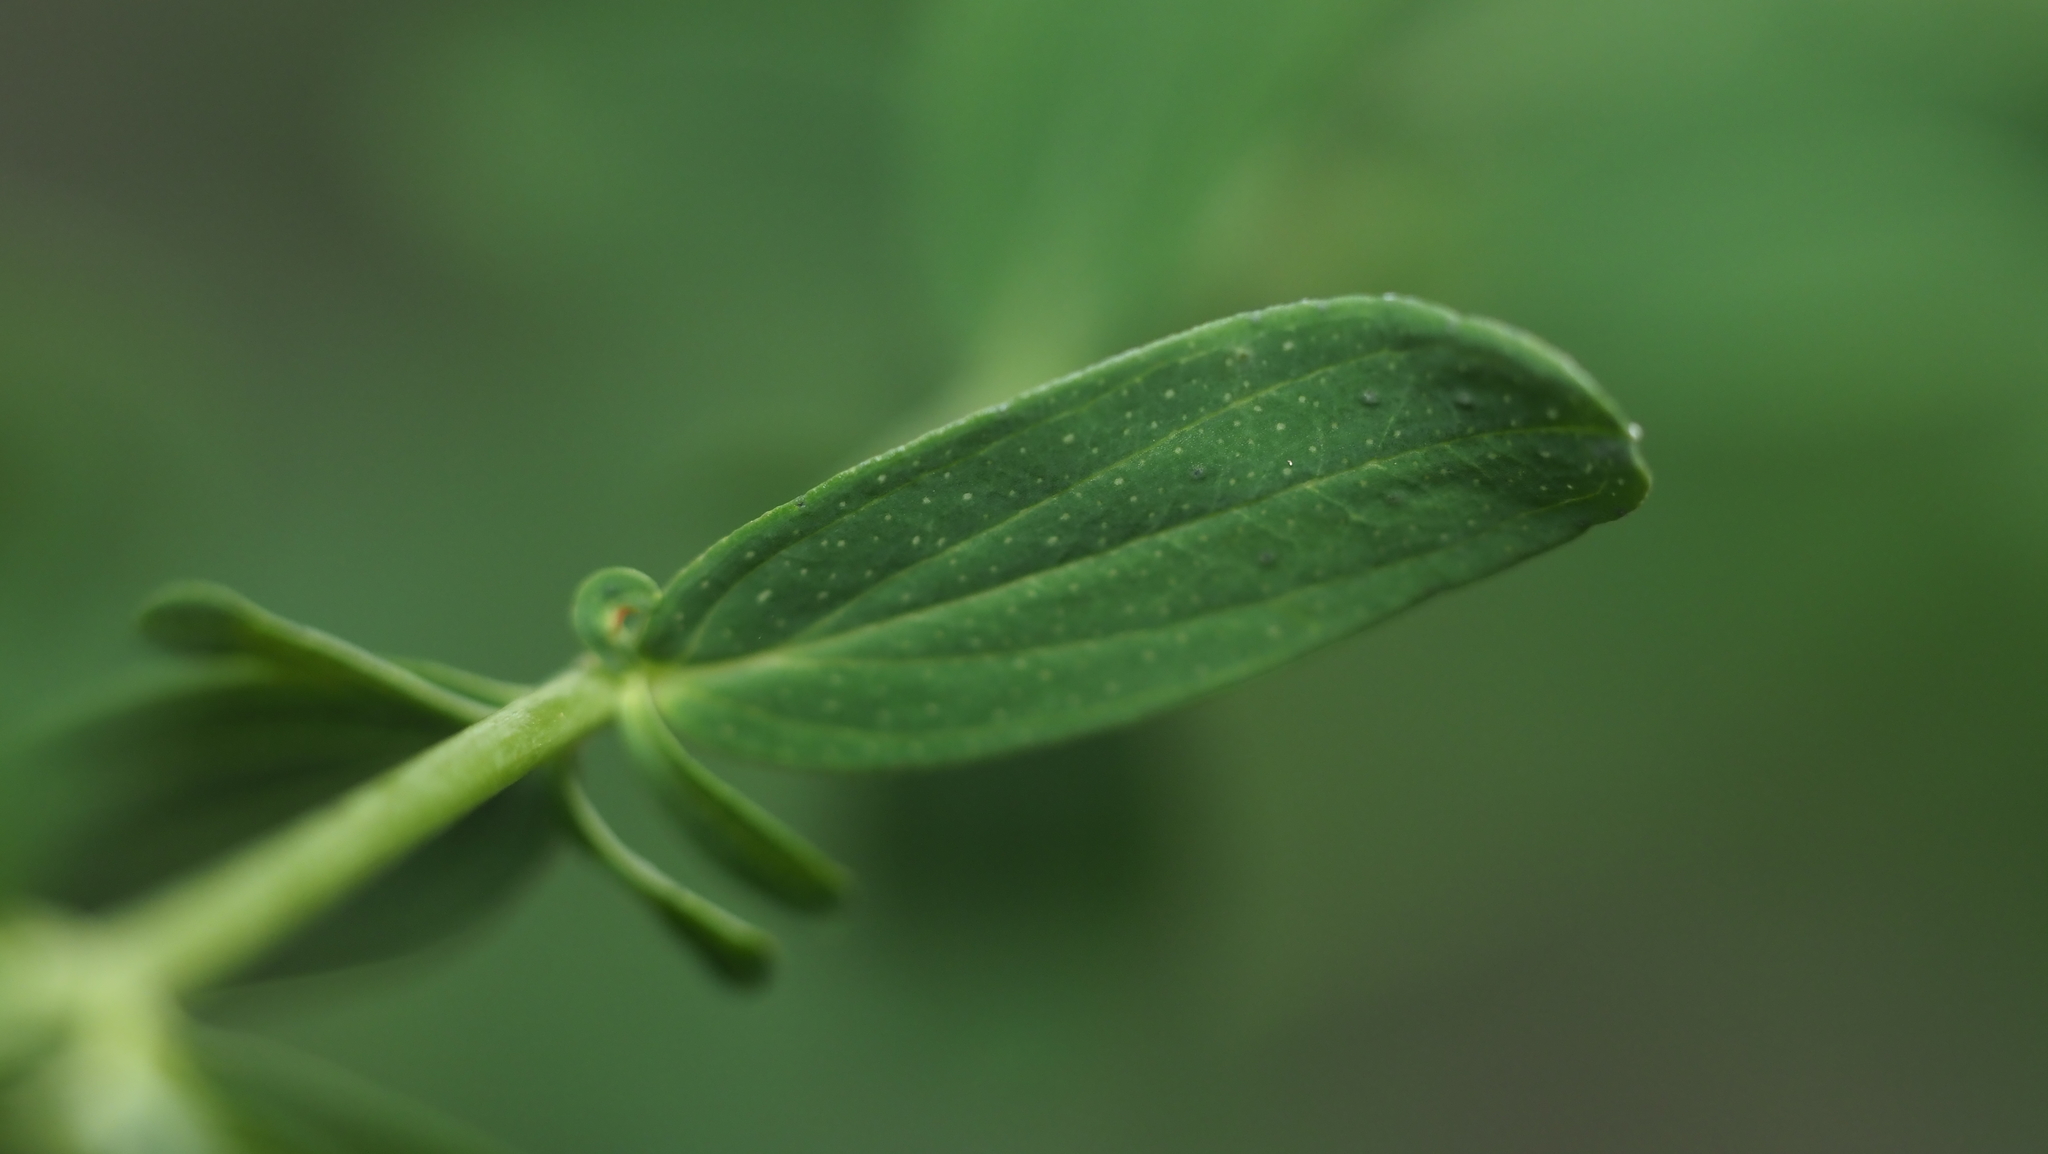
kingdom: Plantae
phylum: Tracheophyta
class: Magnoliopsida
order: Malpighiales
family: Hypericaceae
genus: Hypericum
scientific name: Hypericum perforatum
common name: Common st. johnswort
